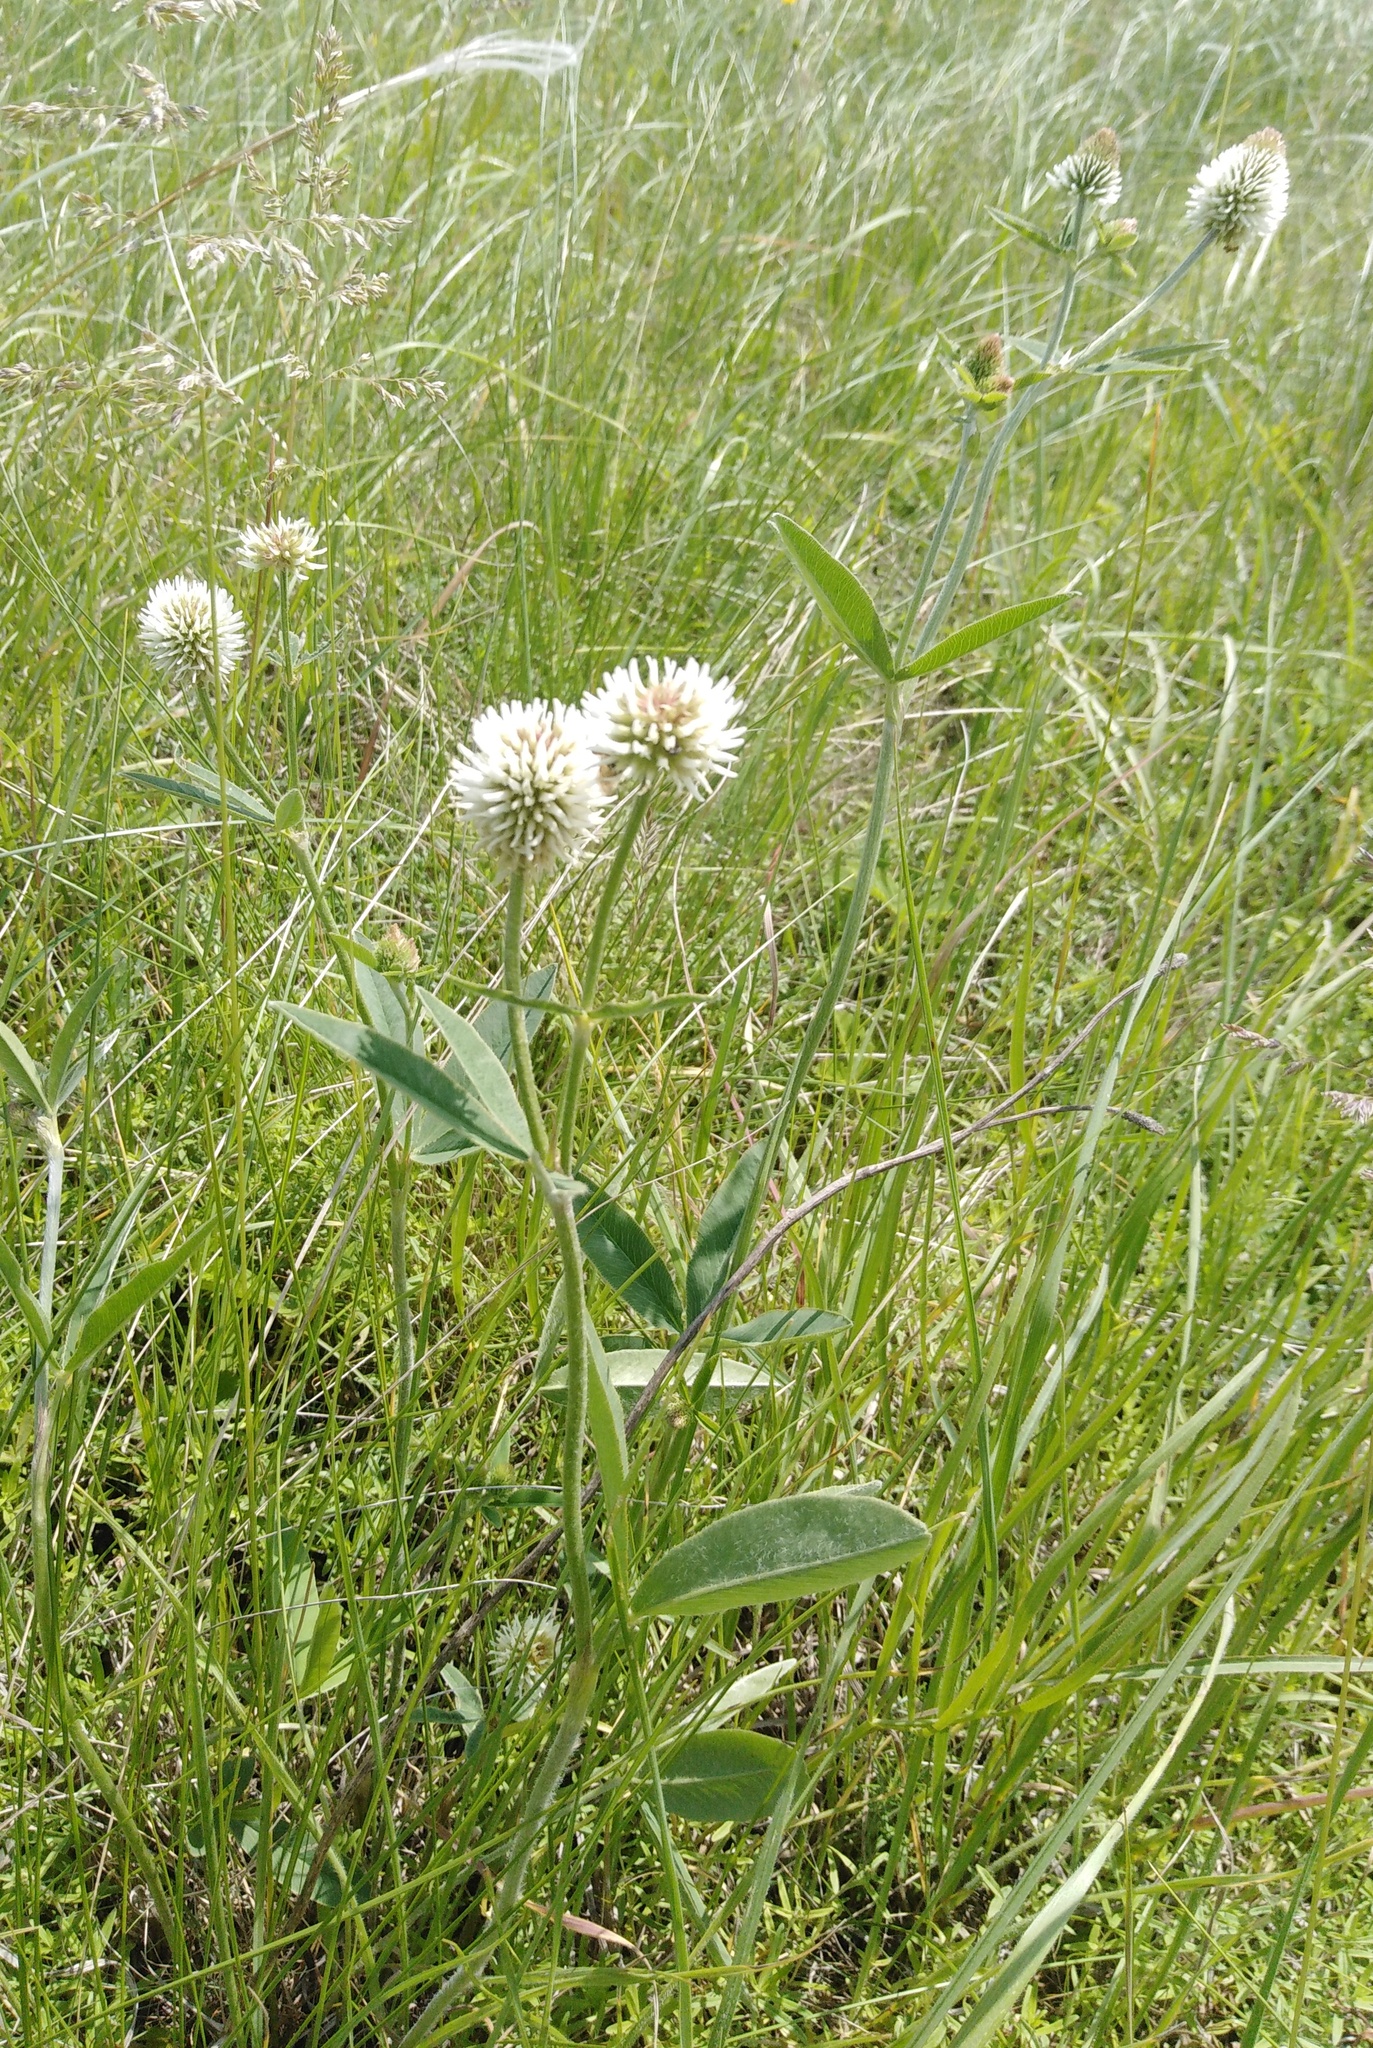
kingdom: Plantae
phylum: Tracheophyta
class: Magnoliopsida
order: Fabales
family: Fabaceae
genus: Trifolium
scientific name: Trifolium montanum
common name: Mountain clover
